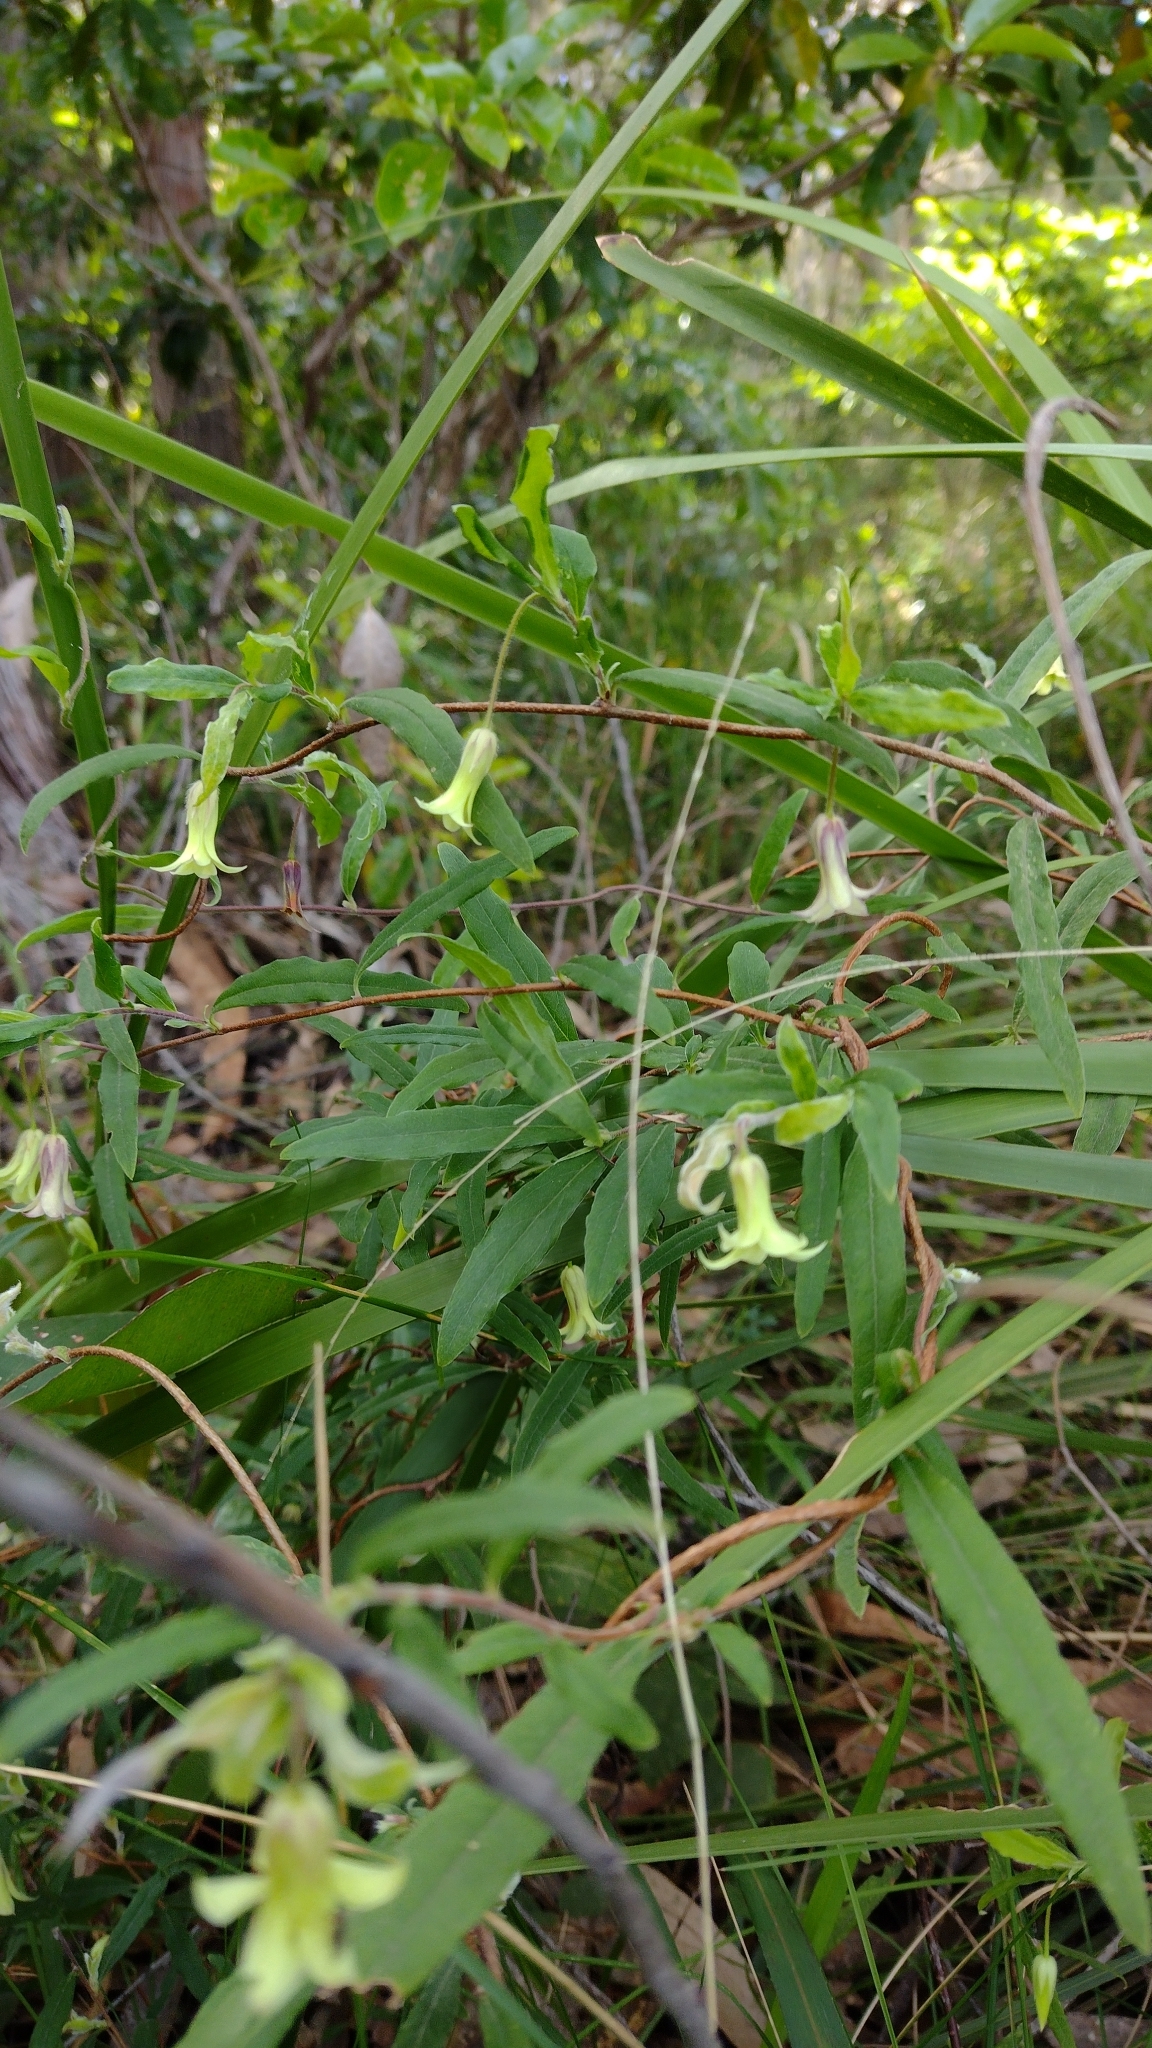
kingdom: Plantae
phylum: Tracheophyta
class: Magnoliopsida
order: Apiales
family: Pittosporaceae
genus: Billardiera
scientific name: Billardiera mutabilis
